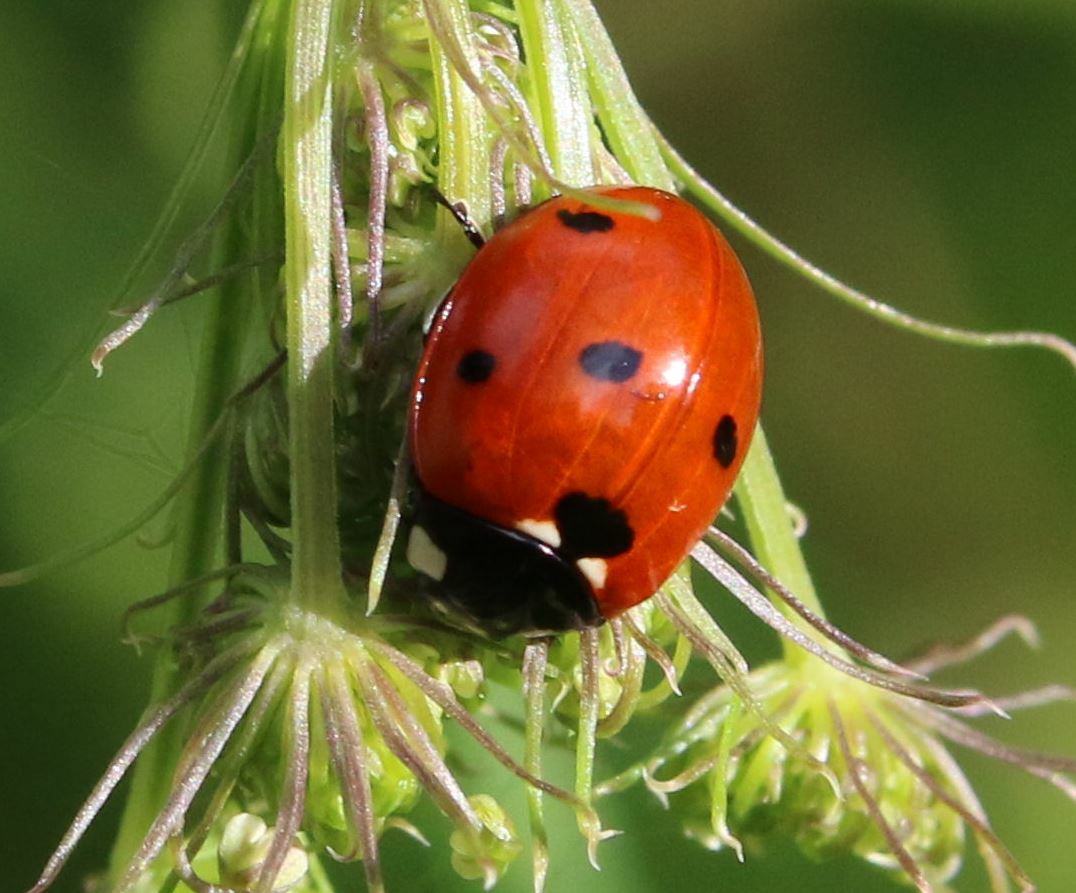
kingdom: Animalia
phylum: Arthropoda
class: Insecta
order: Coleoptera
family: Coccinellidae
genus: Coccinella
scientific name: Coccinella septempunctata
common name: Sevenspotted lady beetle
